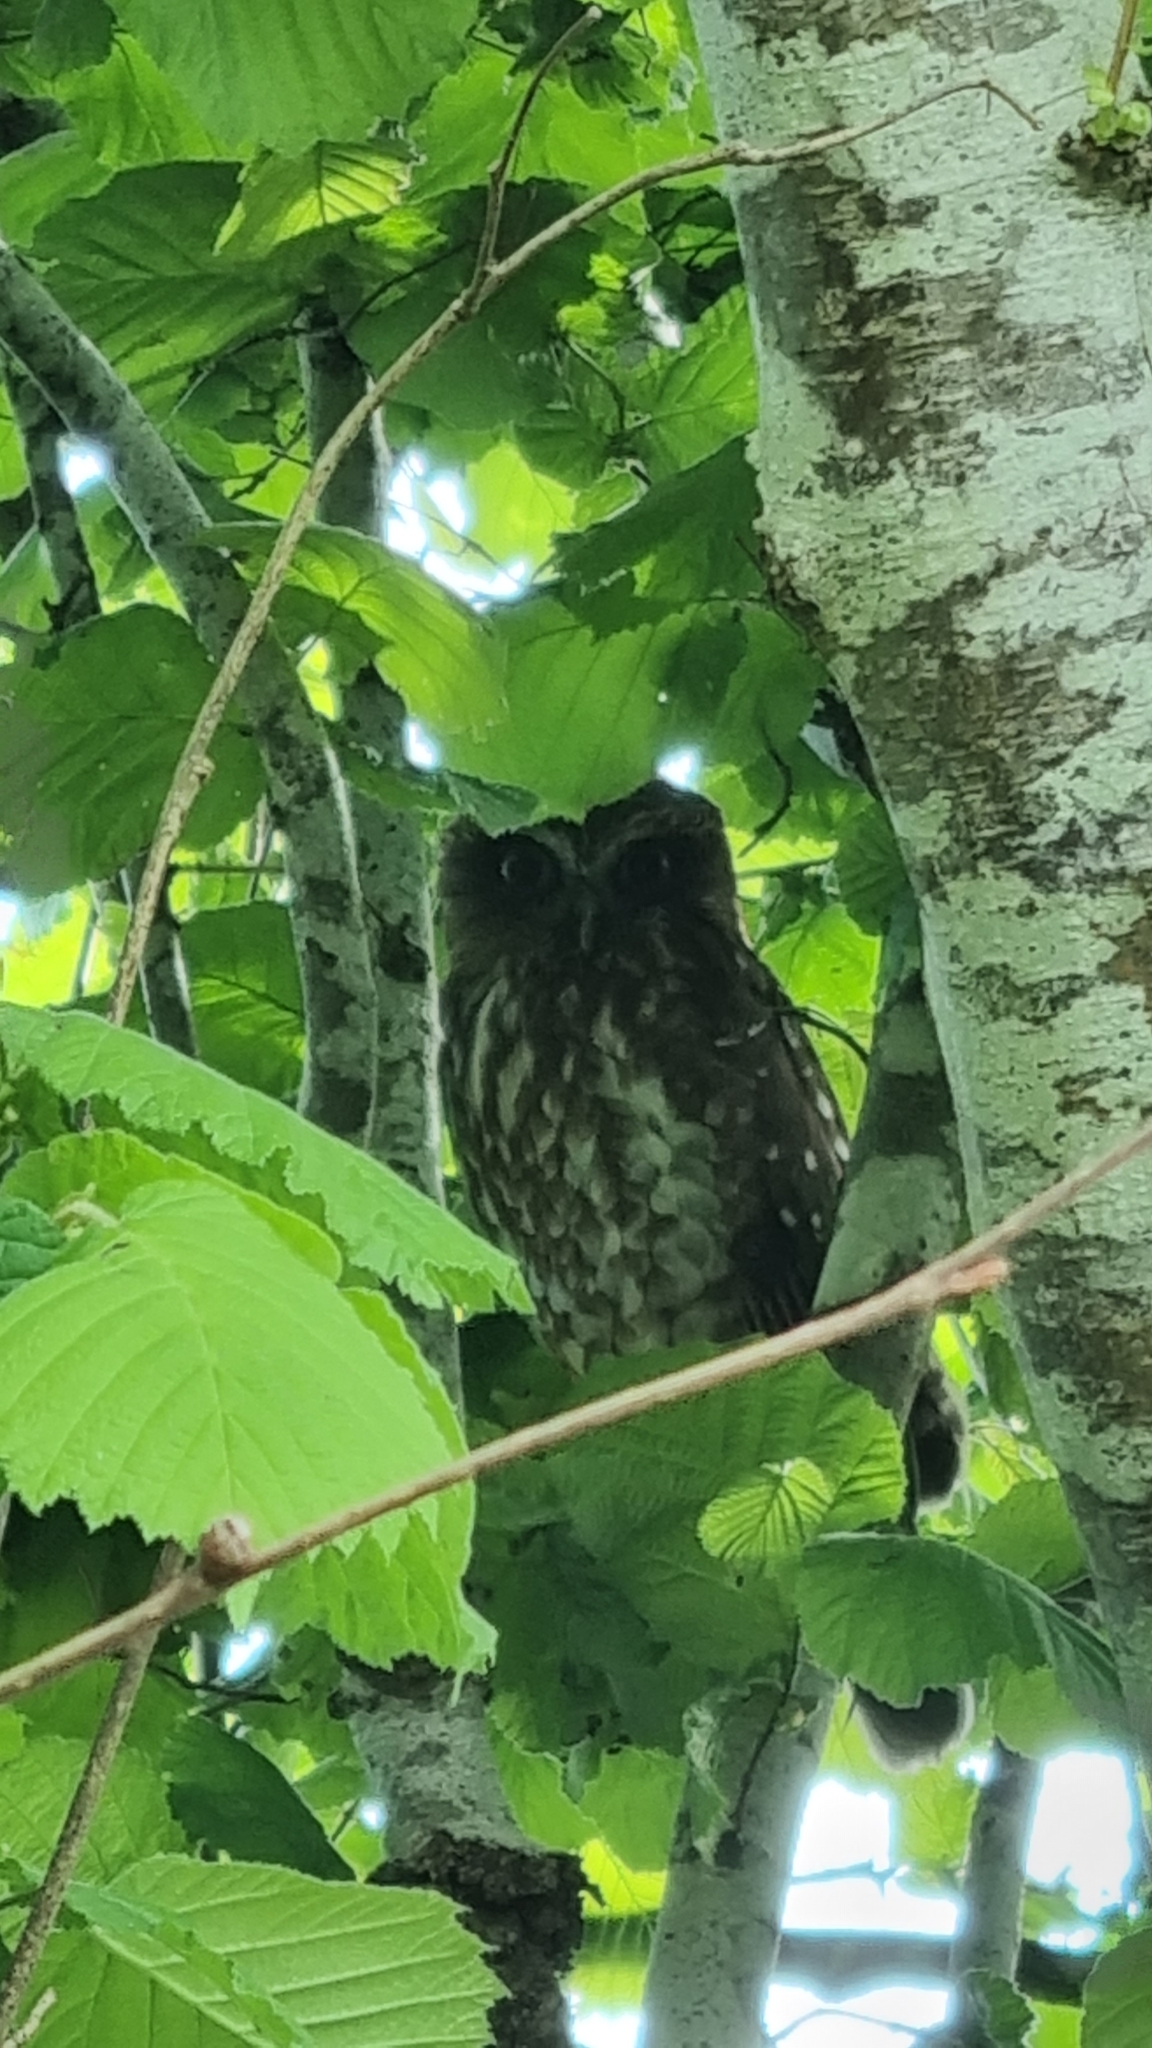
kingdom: Animalia
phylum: Chordata
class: Aves
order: Strigiformes
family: Strigidae
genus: Ninox
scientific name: Ninox boobook
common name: Southern boobook
